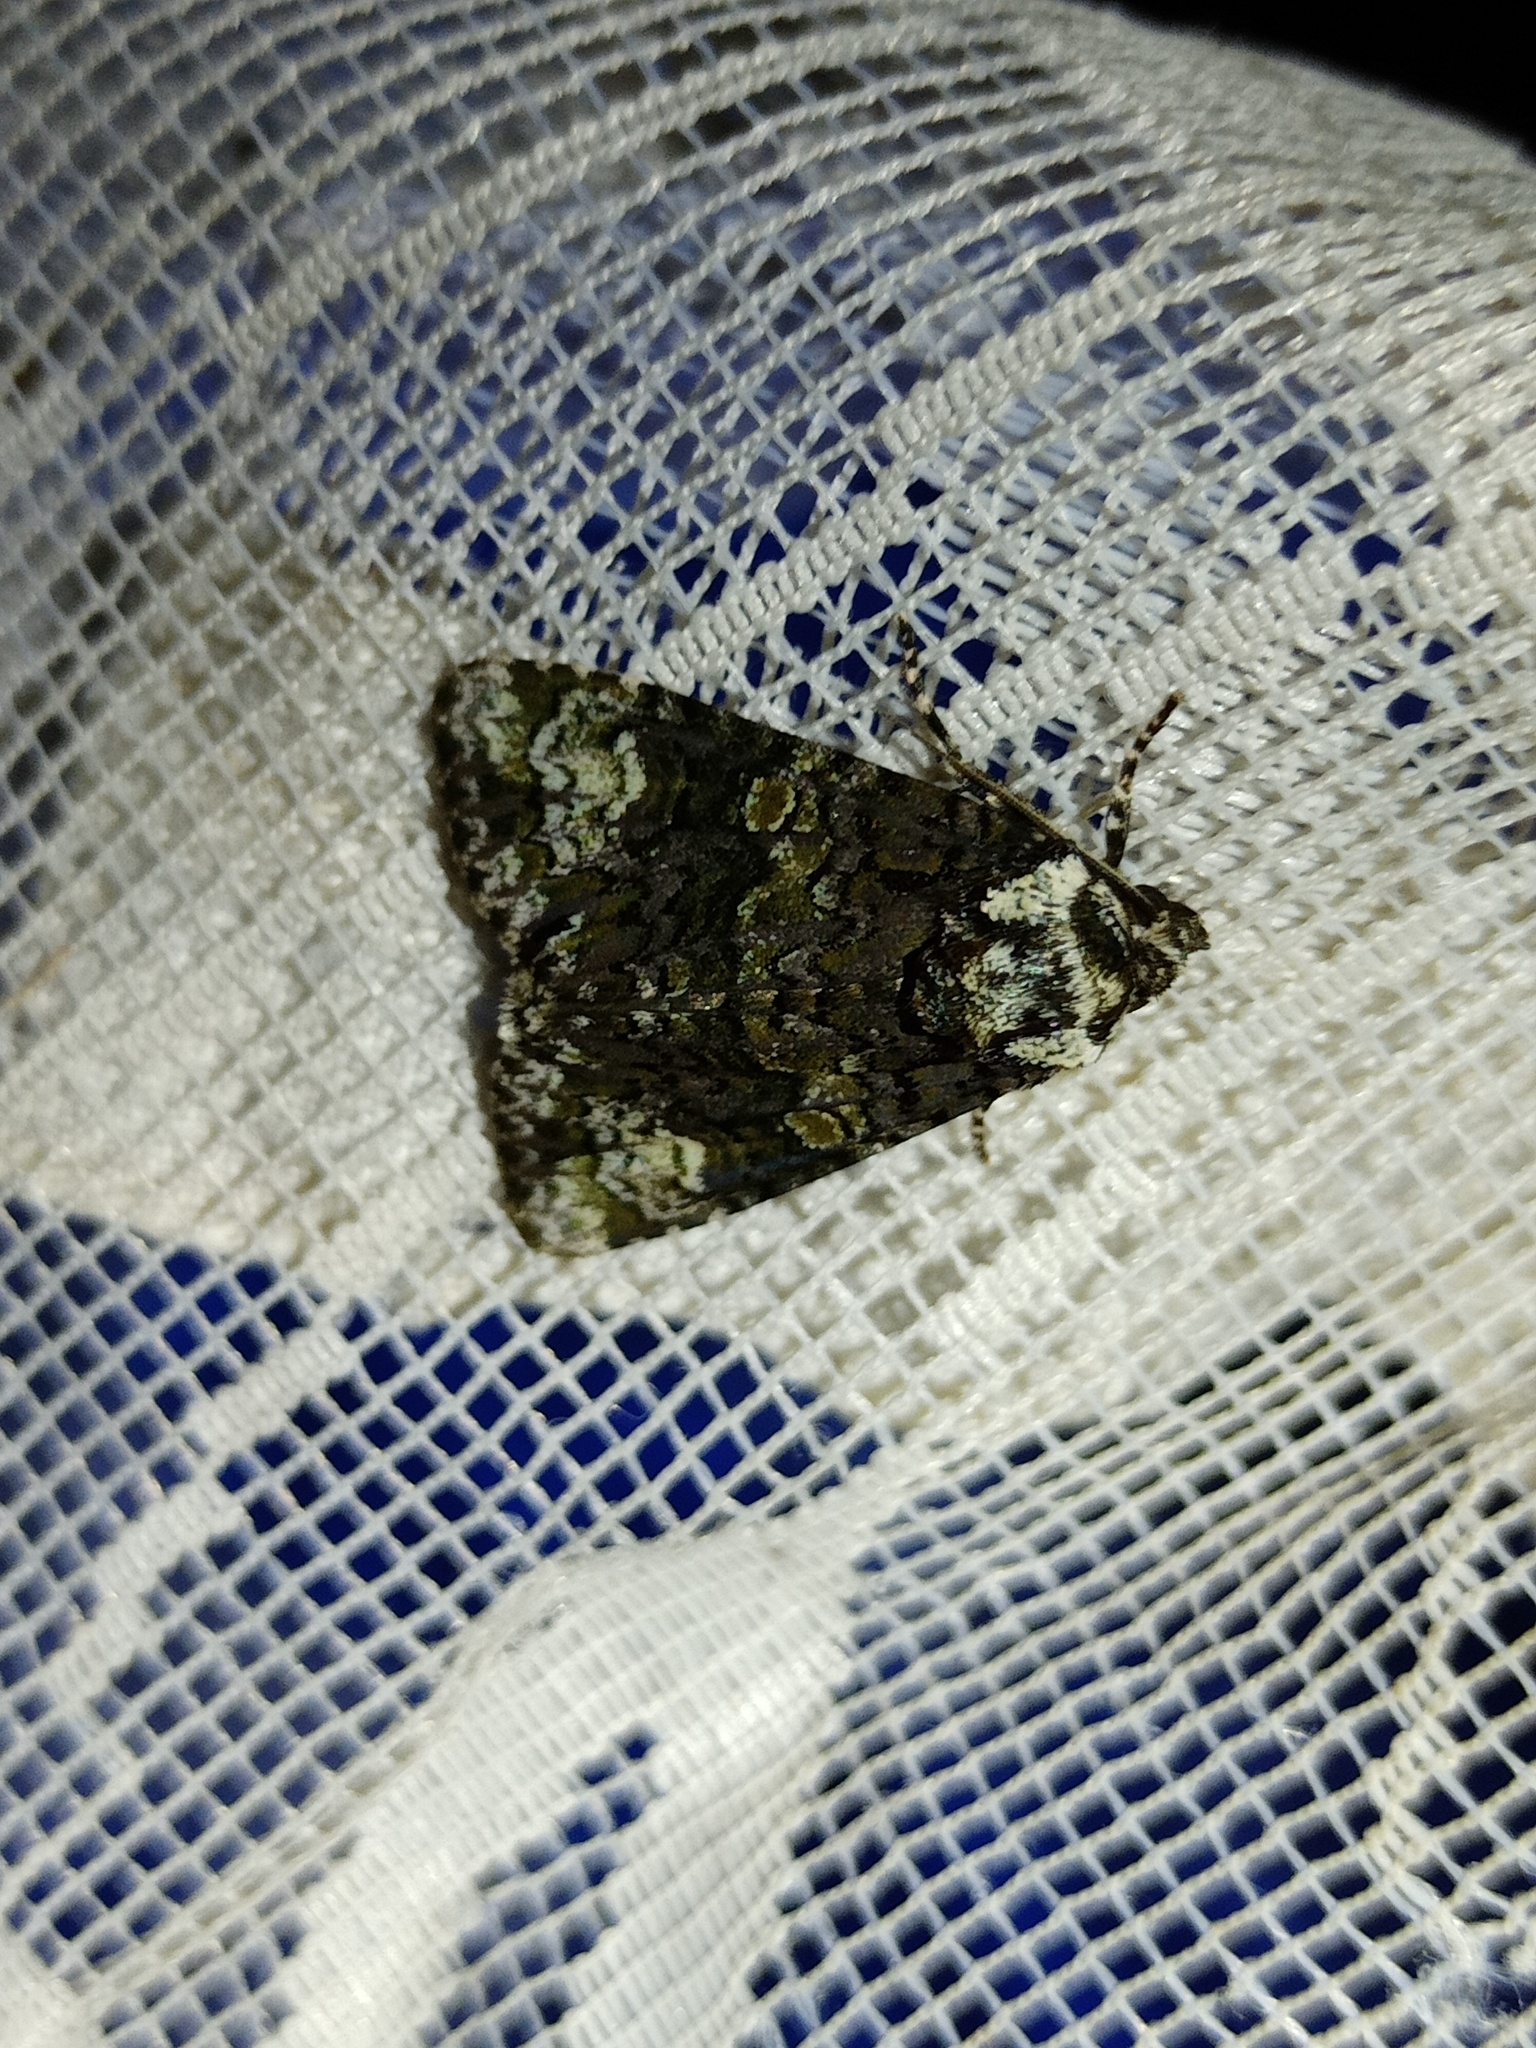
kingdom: Animalia
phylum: Arthropoda
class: Insecta
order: Lepidoptera
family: Noctuidae
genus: Craniophora
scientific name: Craniophora ligustri
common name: Coronet
